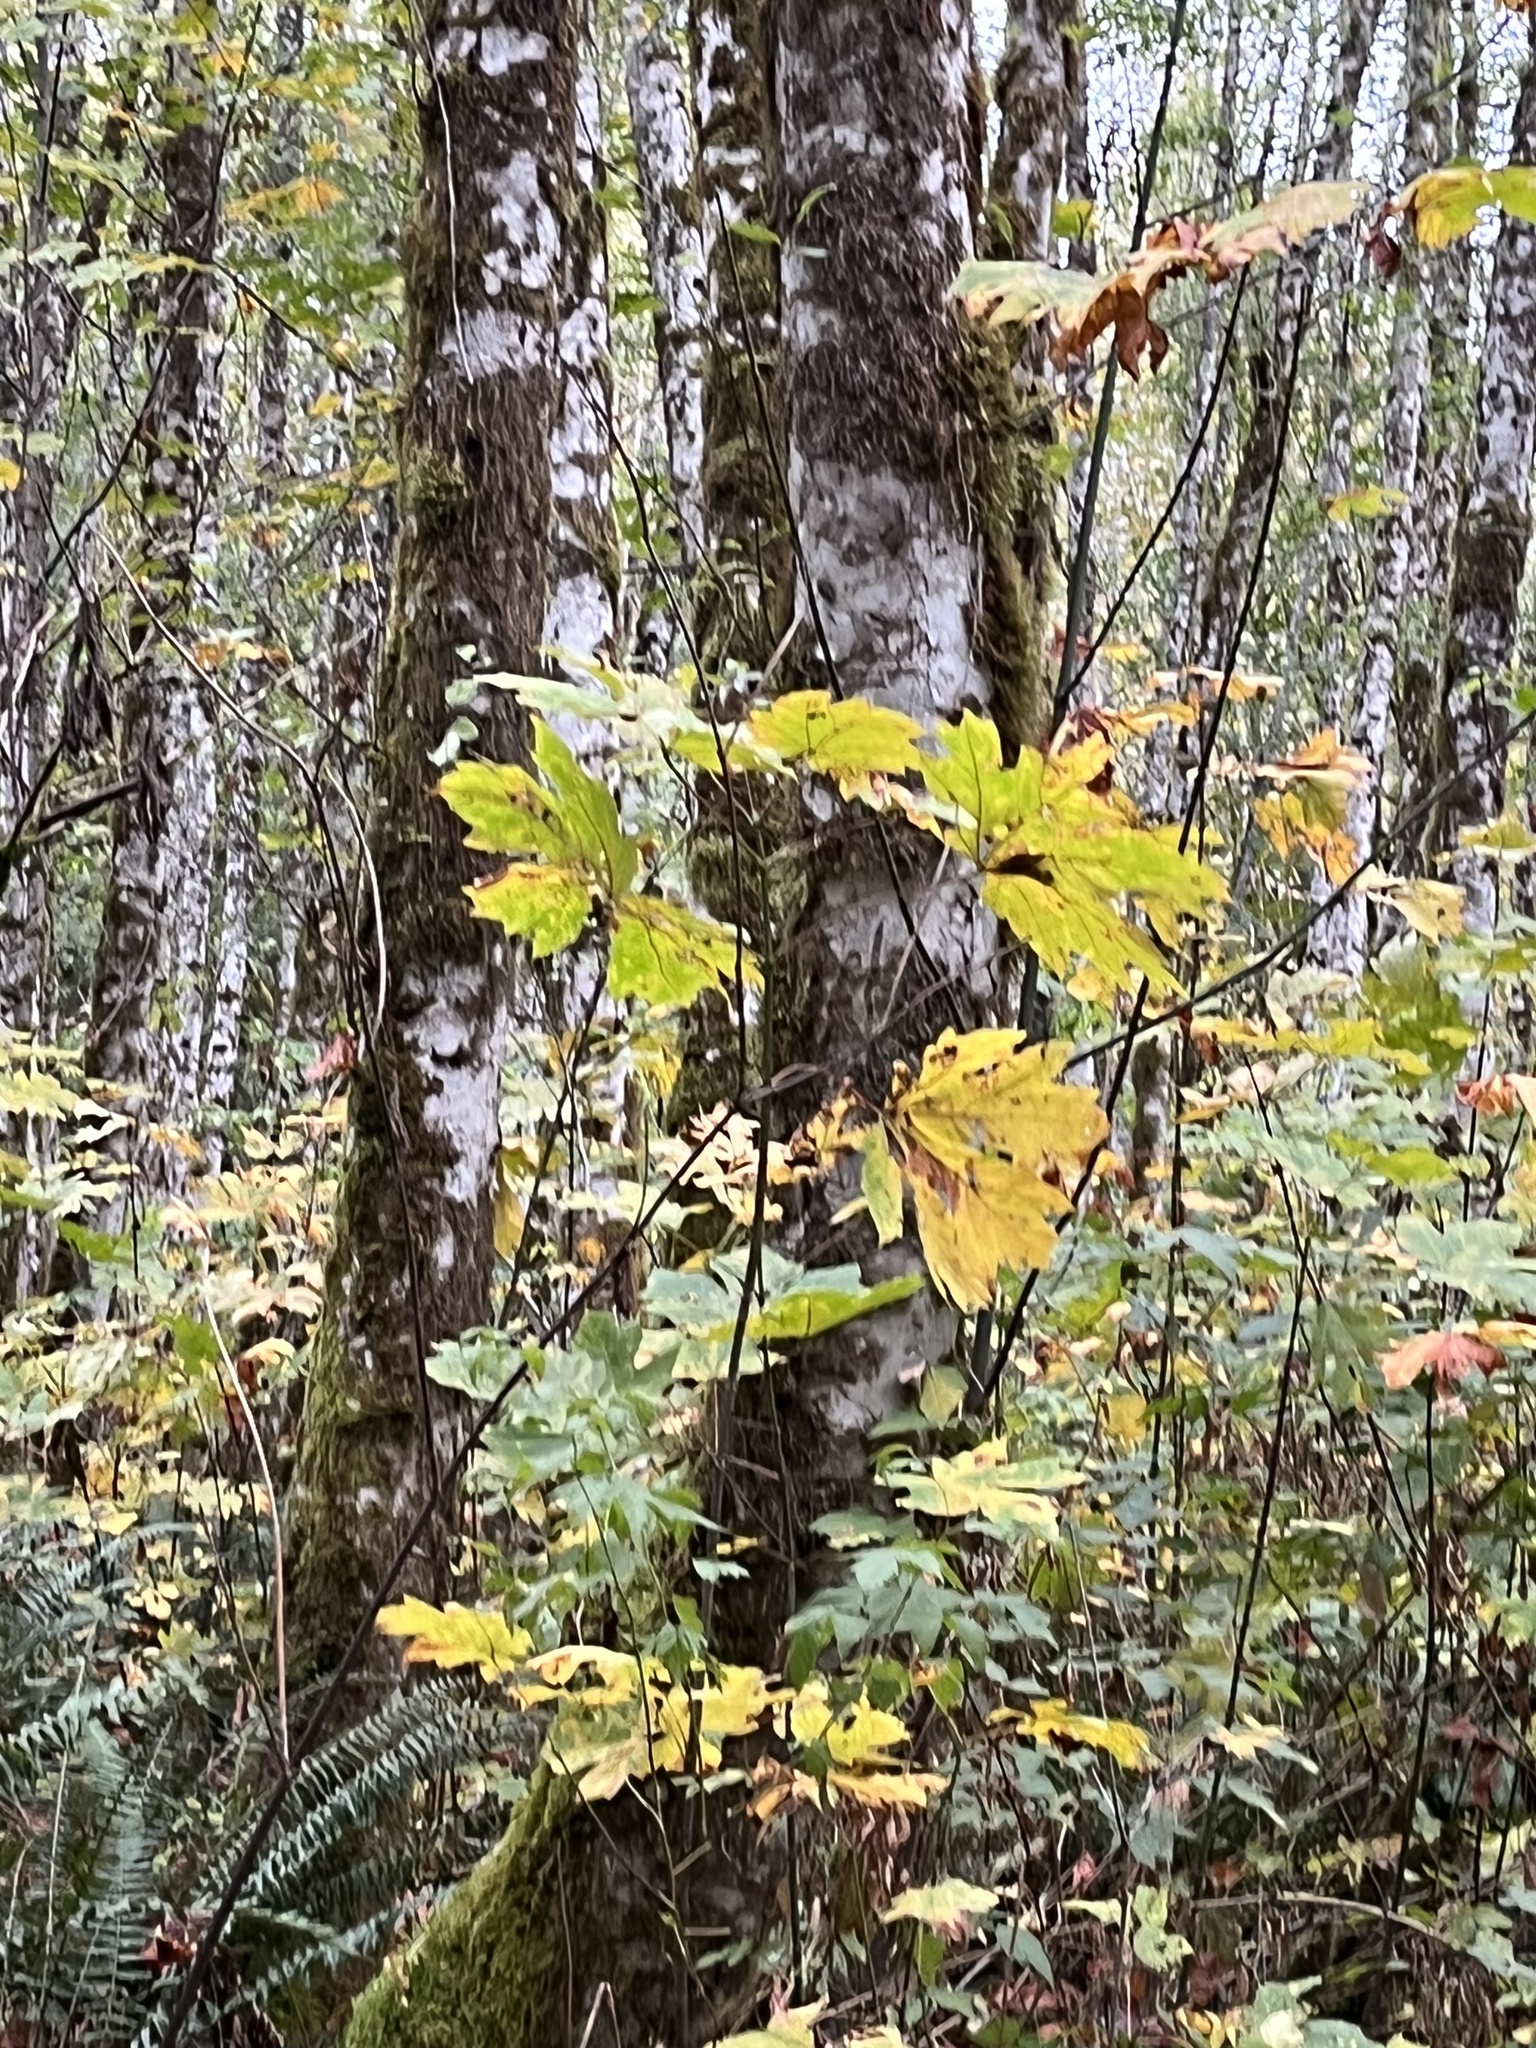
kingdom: Plantae
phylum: Tracheophyta
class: Magnoliopsida
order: Sapindales
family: Sapindaceae
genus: Acer
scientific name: Acer macrophyllum
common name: Oregon maple
